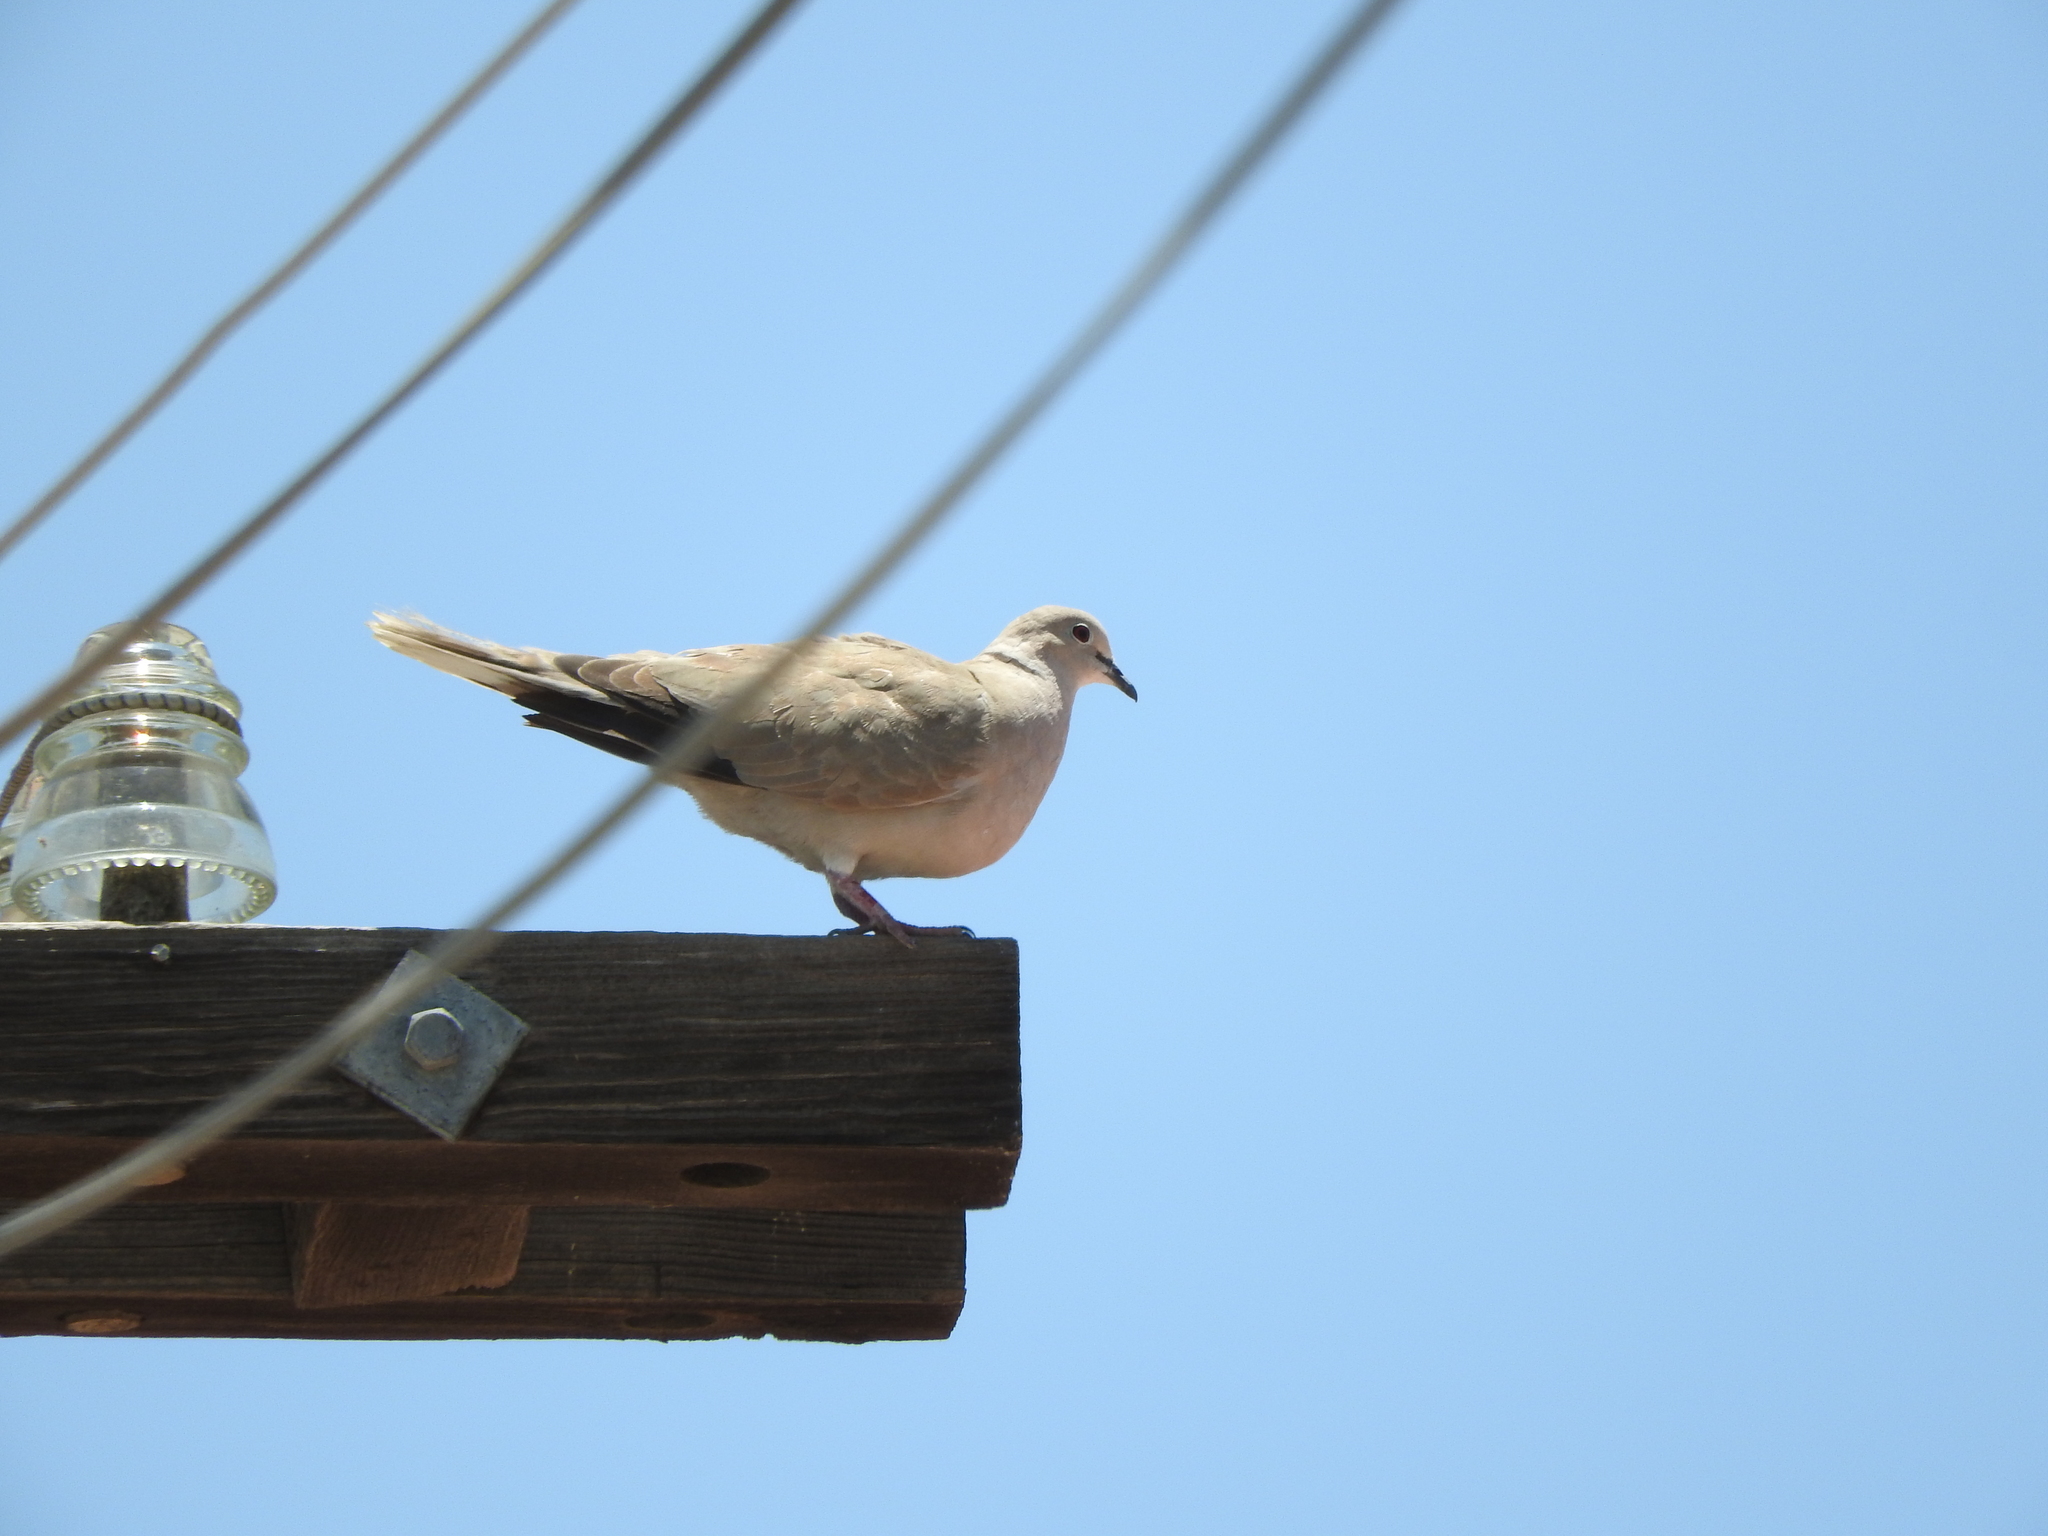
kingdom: Animalia
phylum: Chordata
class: Aves
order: Columbiformes
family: Columbidae
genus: Streptopelia
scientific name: Streptopelia decaocto
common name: Eurasian collared dove
